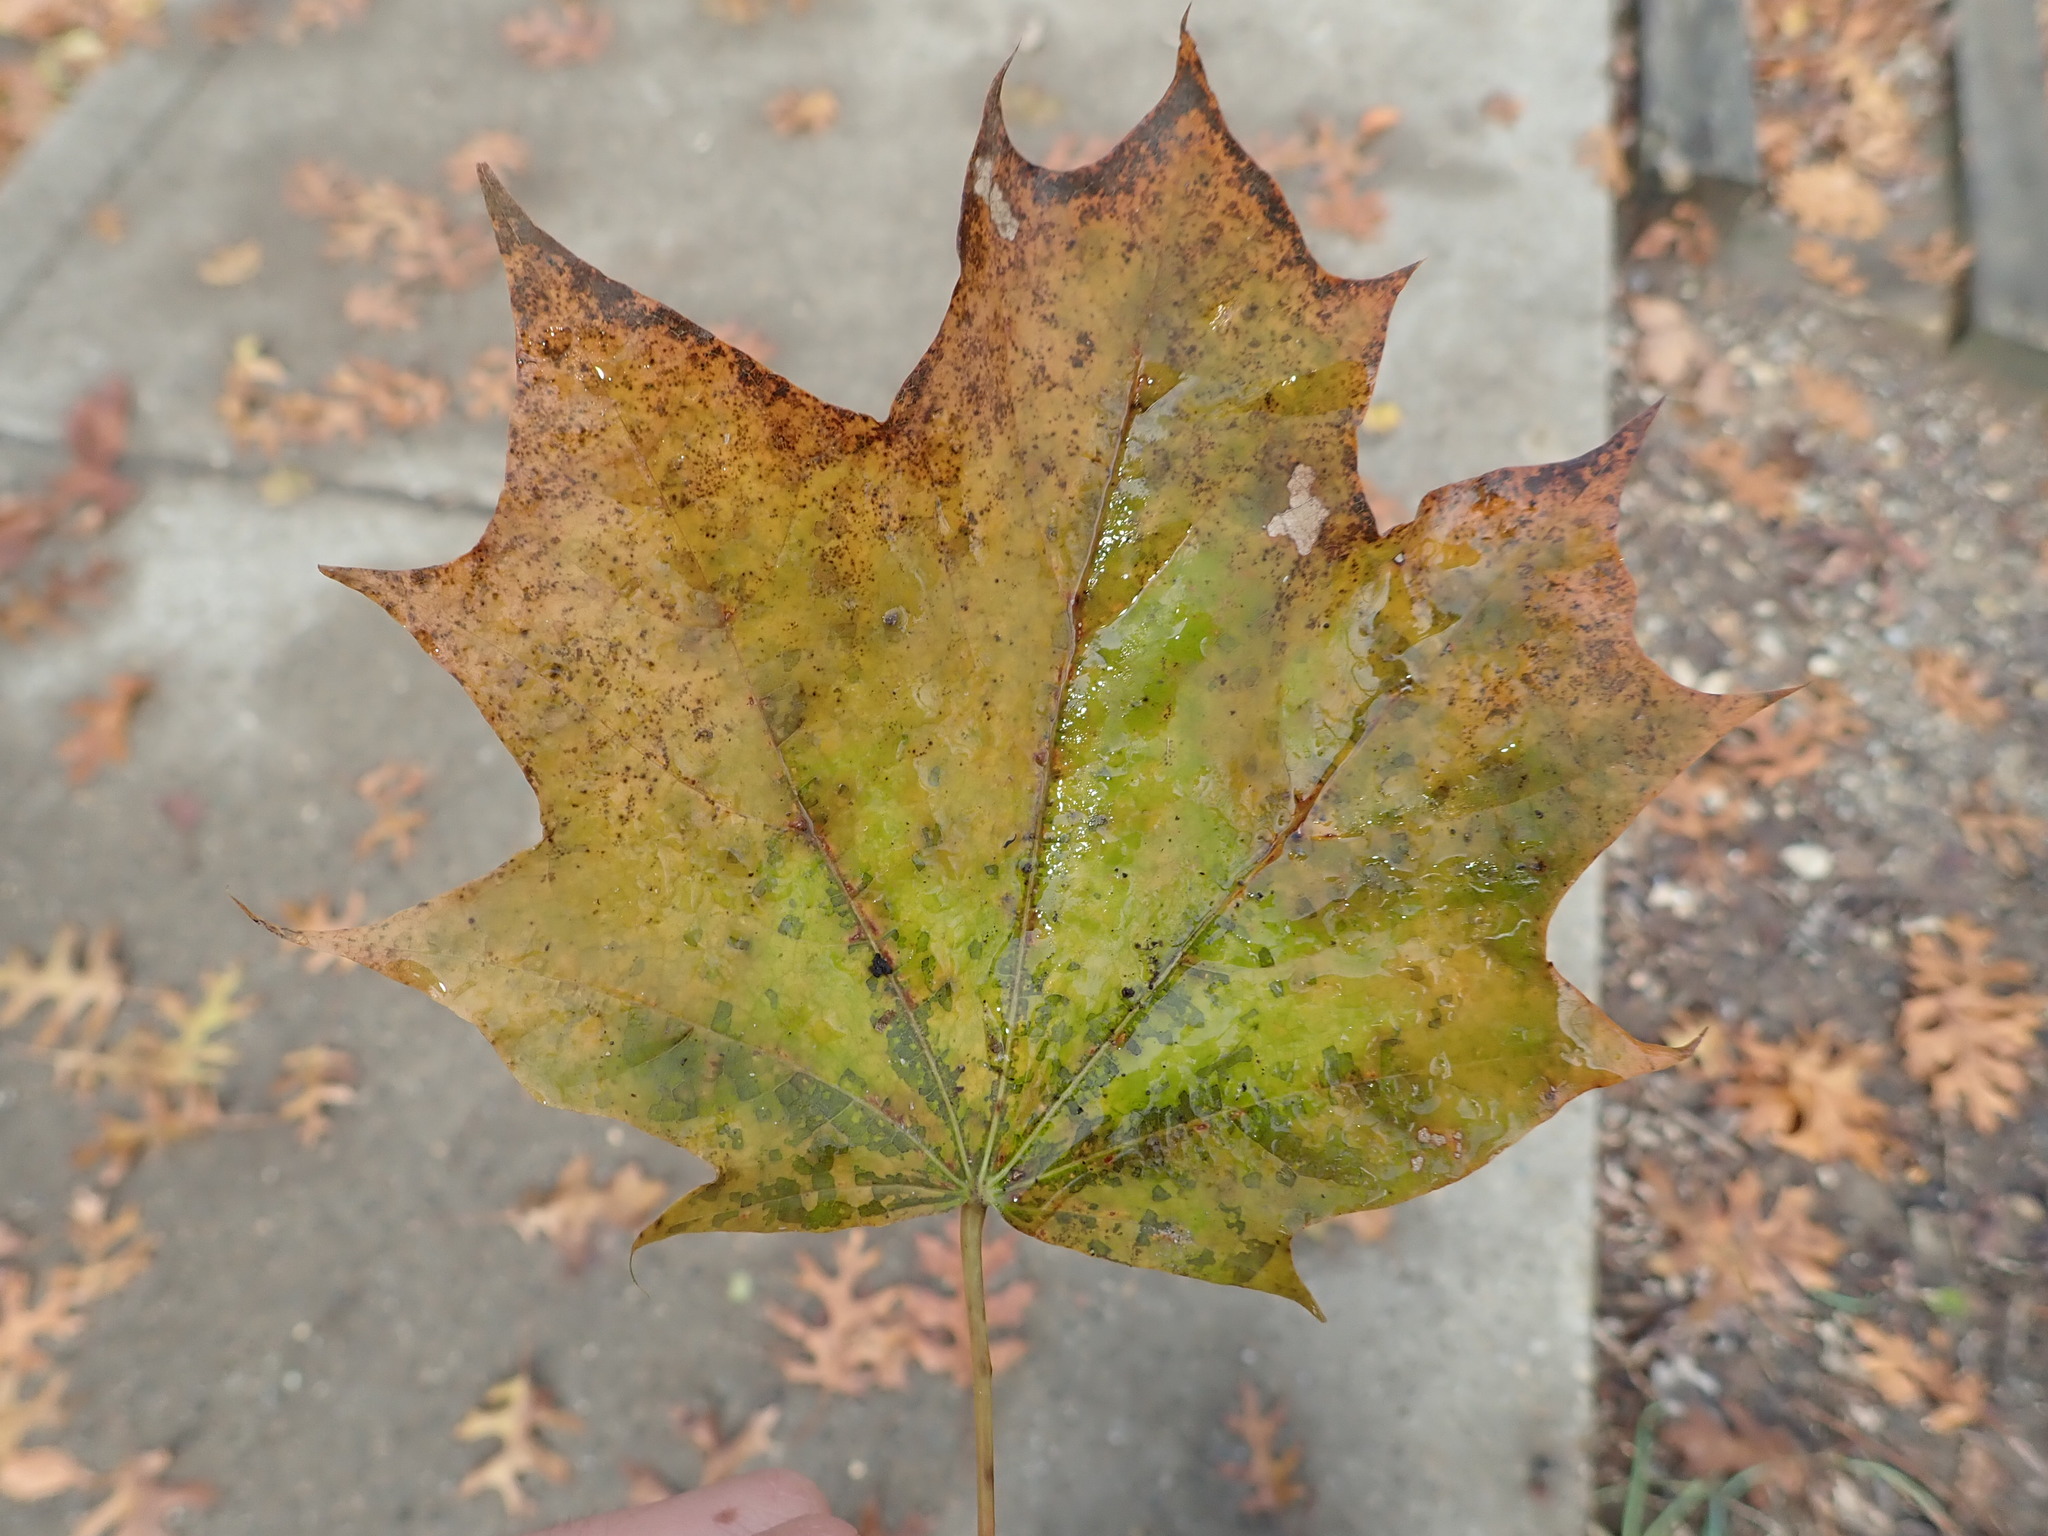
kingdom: Plantae
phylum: Tracheophyta
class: Magnoliopsida
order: Sapindales
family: Sapindaceae
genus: Acer
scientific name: Acer platanoides
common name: Norway maple
